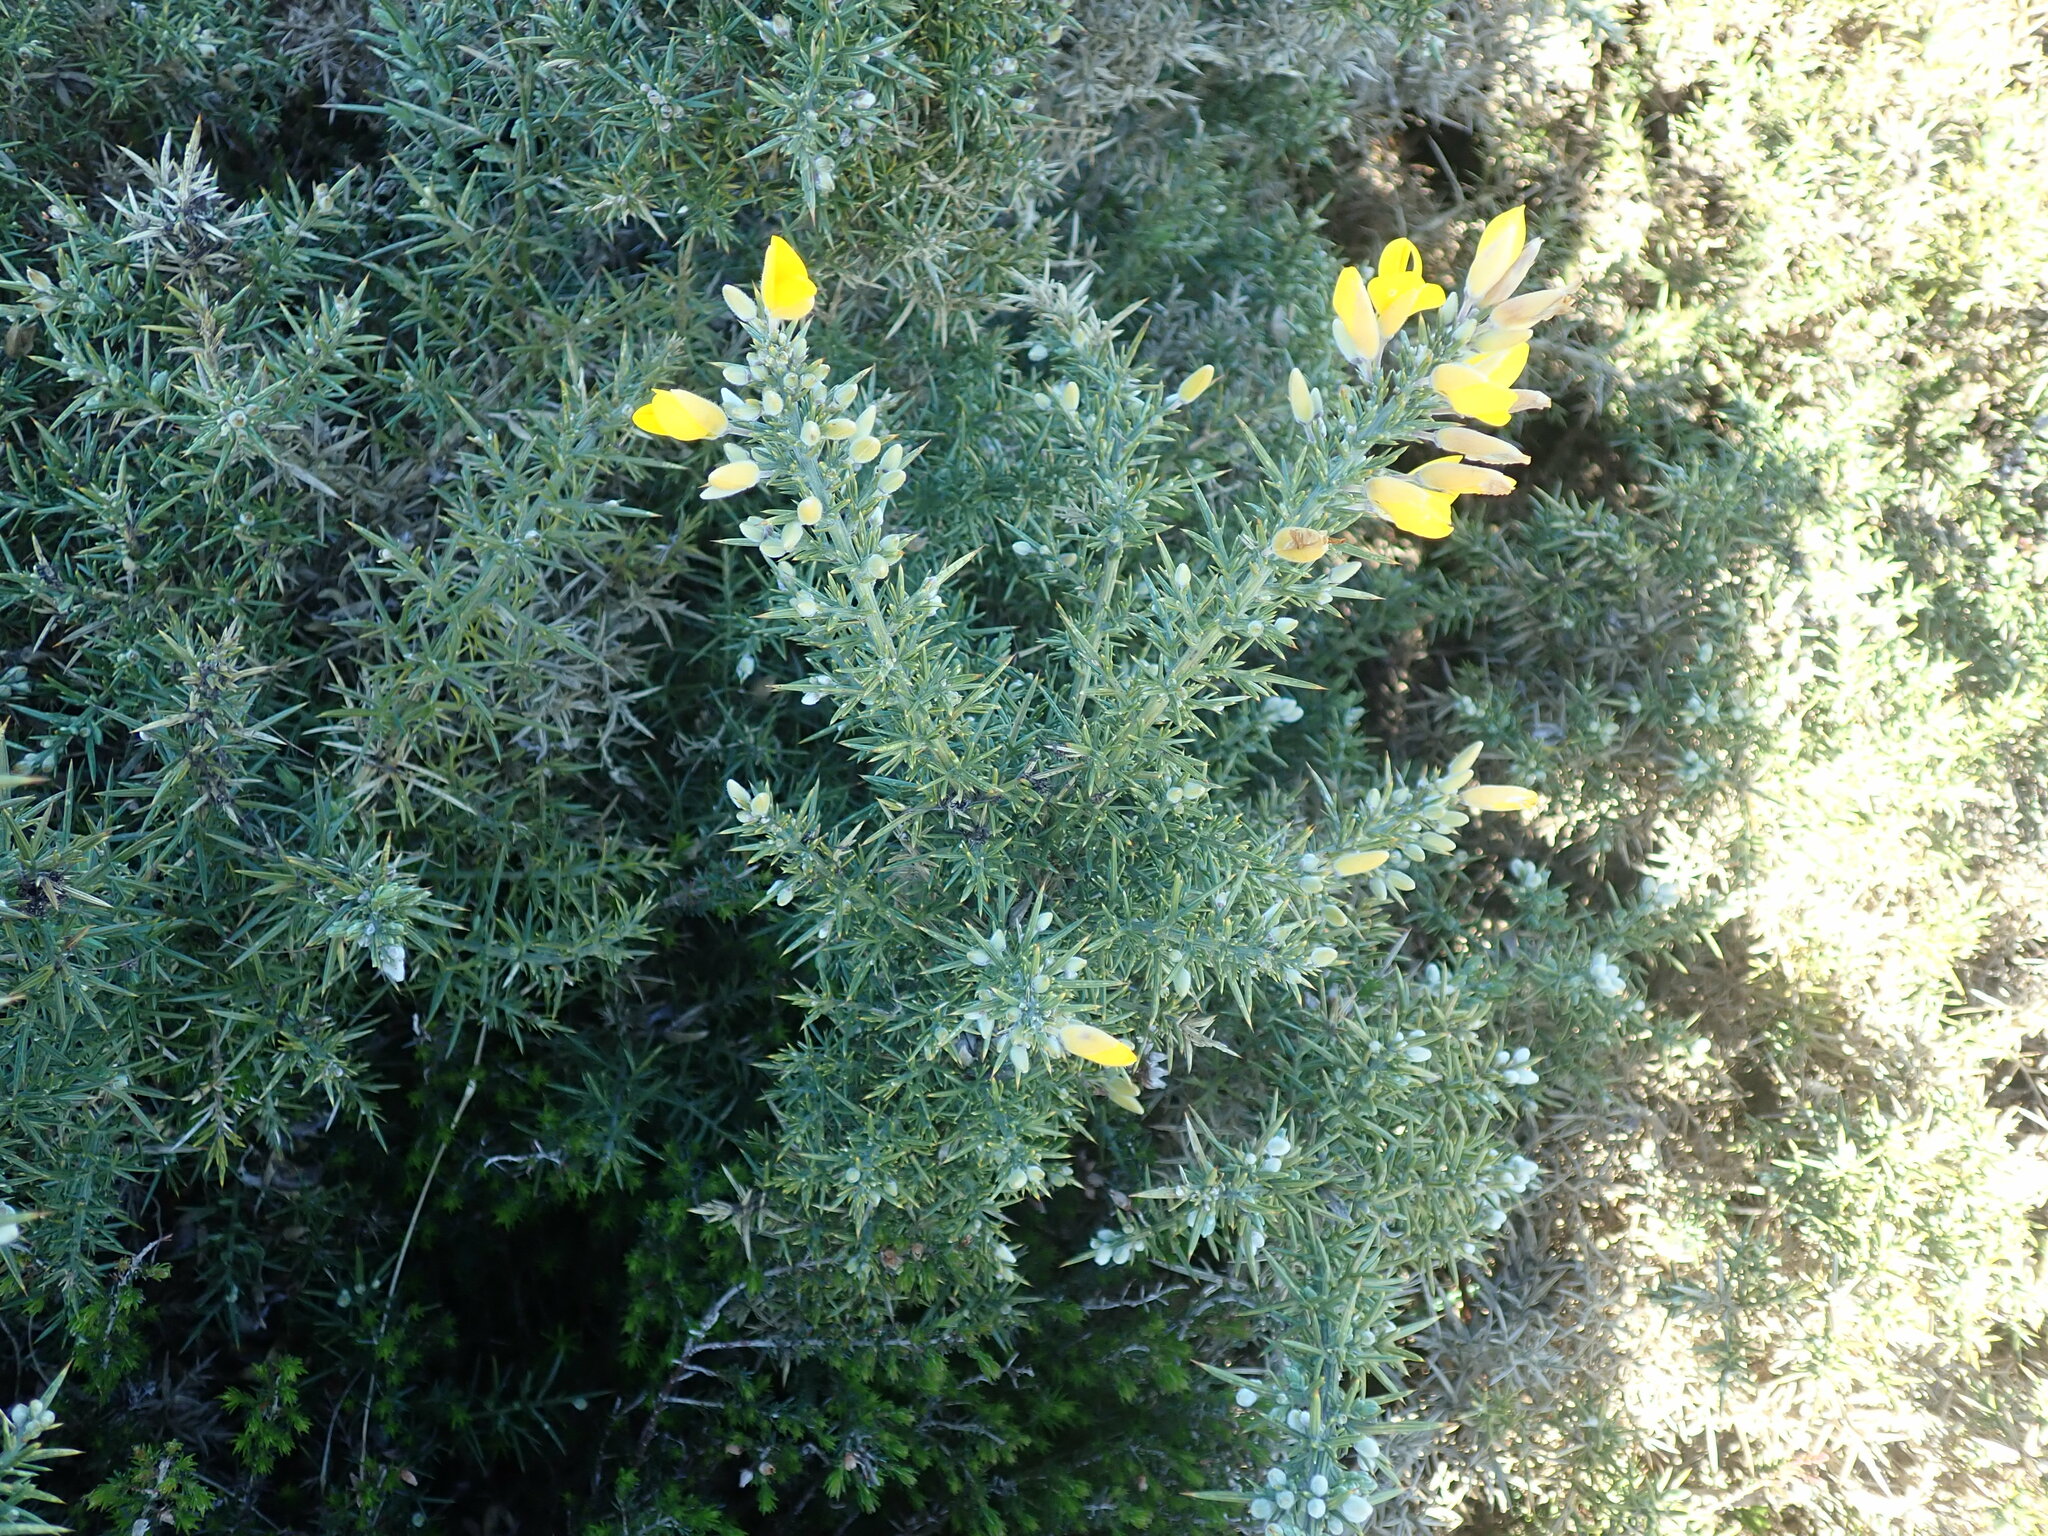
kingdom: Plantae
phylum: Tracheophyta
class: Magnoliopsida
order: Fabales
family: Fabaceae
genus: Ulex
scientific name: Ulex gallii
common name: Western gorse
